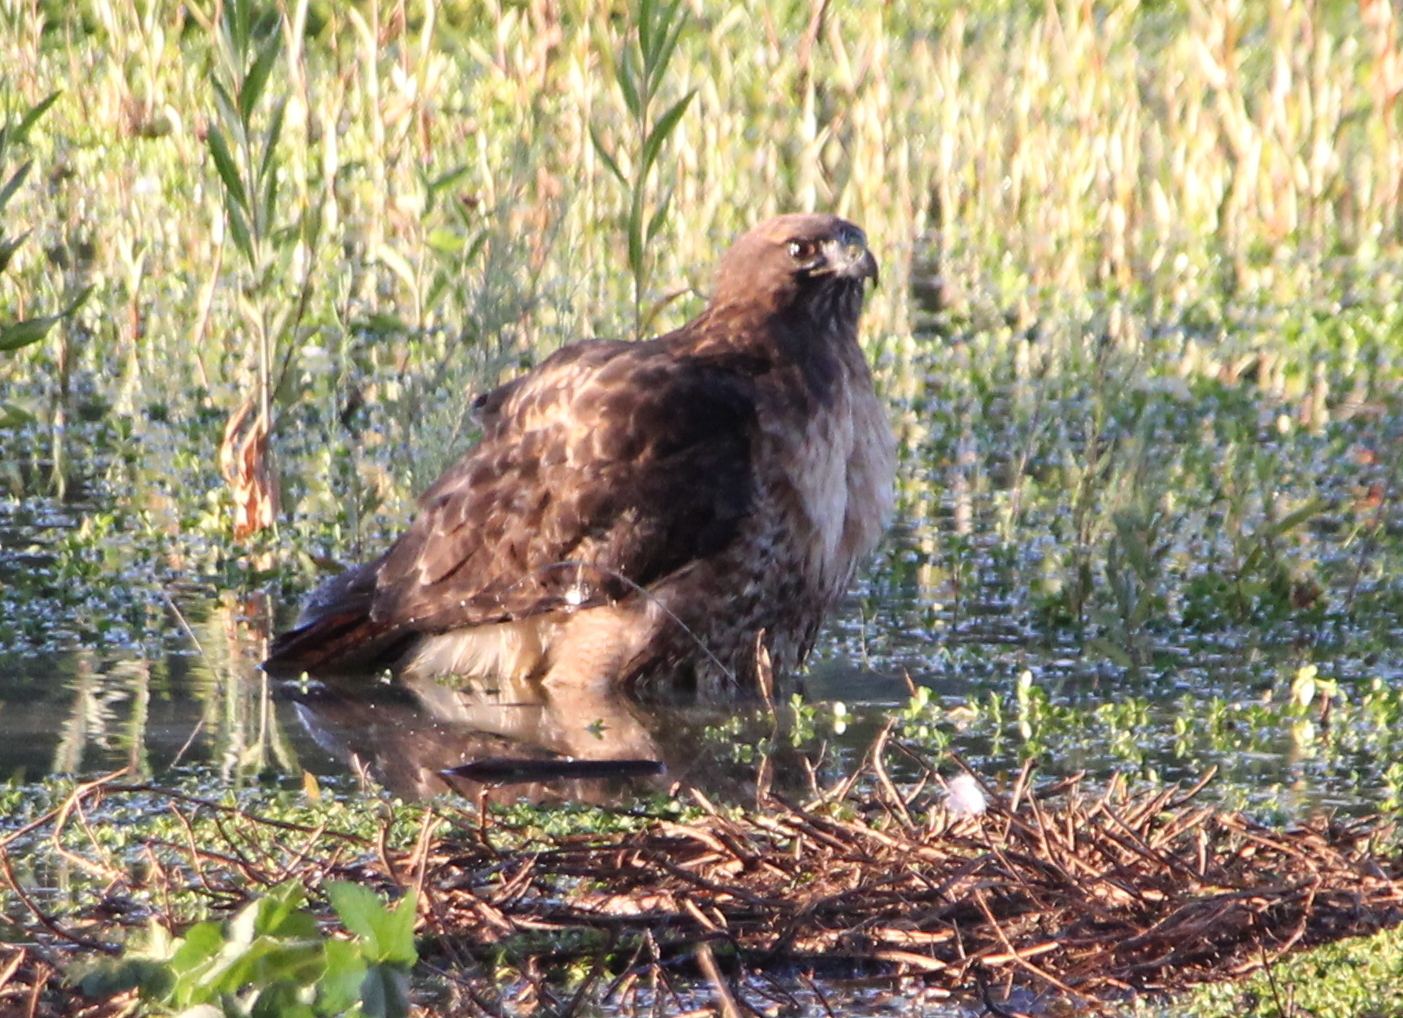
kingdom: Animalia
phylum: Chordata
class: Aves
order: Accipitriformes
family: Accipitridae
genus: Buteo
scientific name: Buteo jamaicensis
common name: Red-tailed hawk
